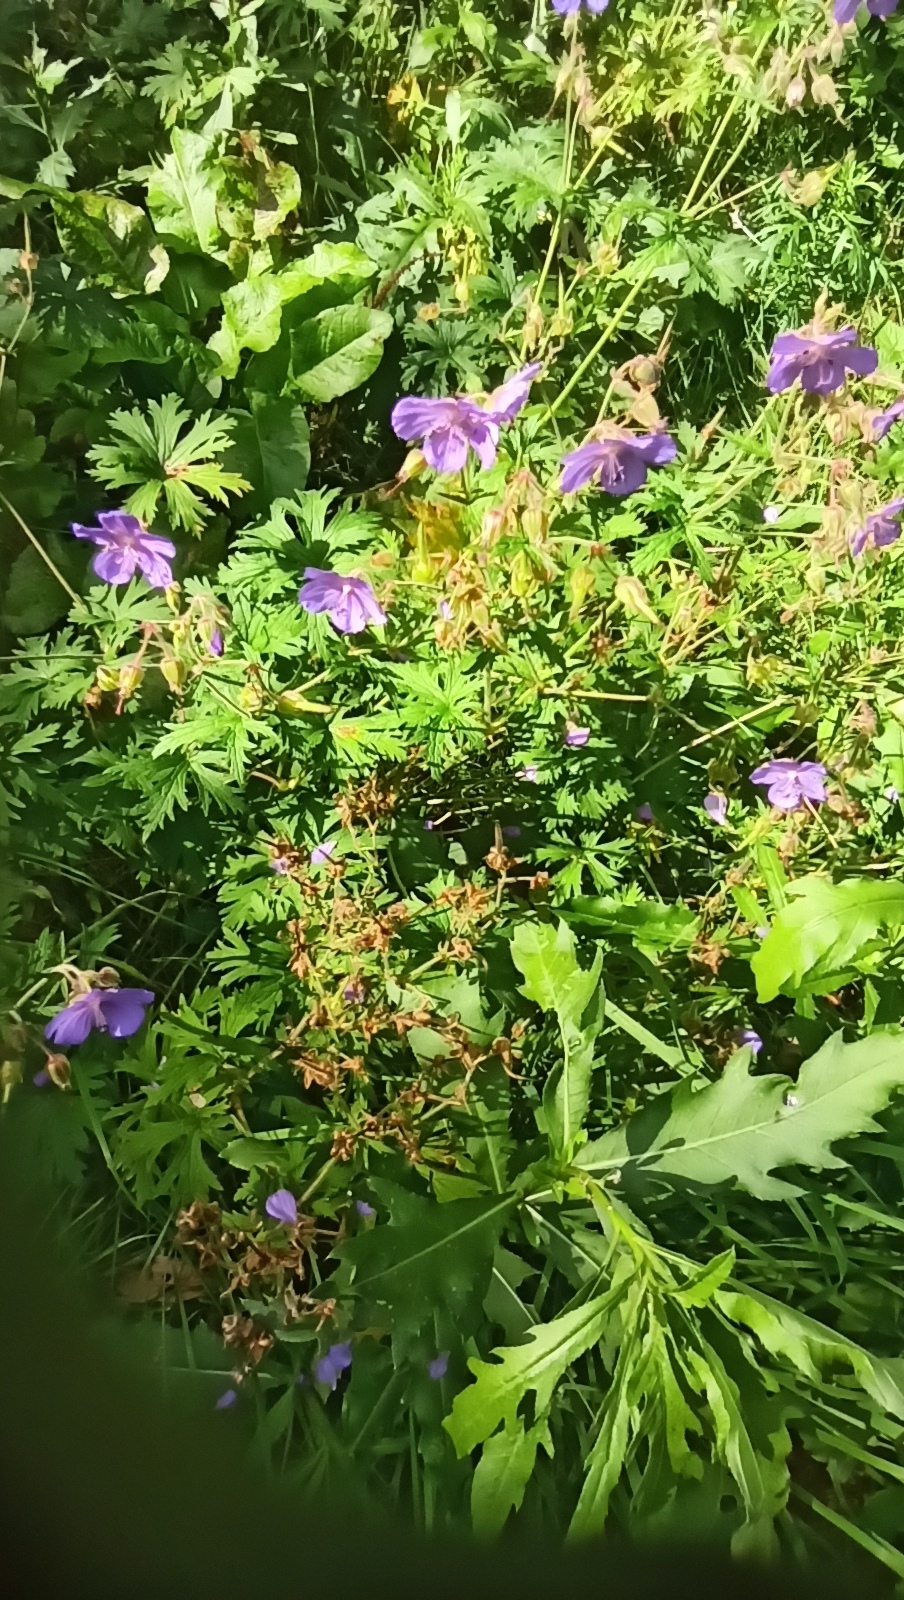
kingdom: Plantae
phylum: Tracheophyta
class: Magnoliopsida
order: Geraniales
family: Geraniaceae
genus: Geranium
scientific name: Geranium pratense
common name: Meadow crane's-bill
